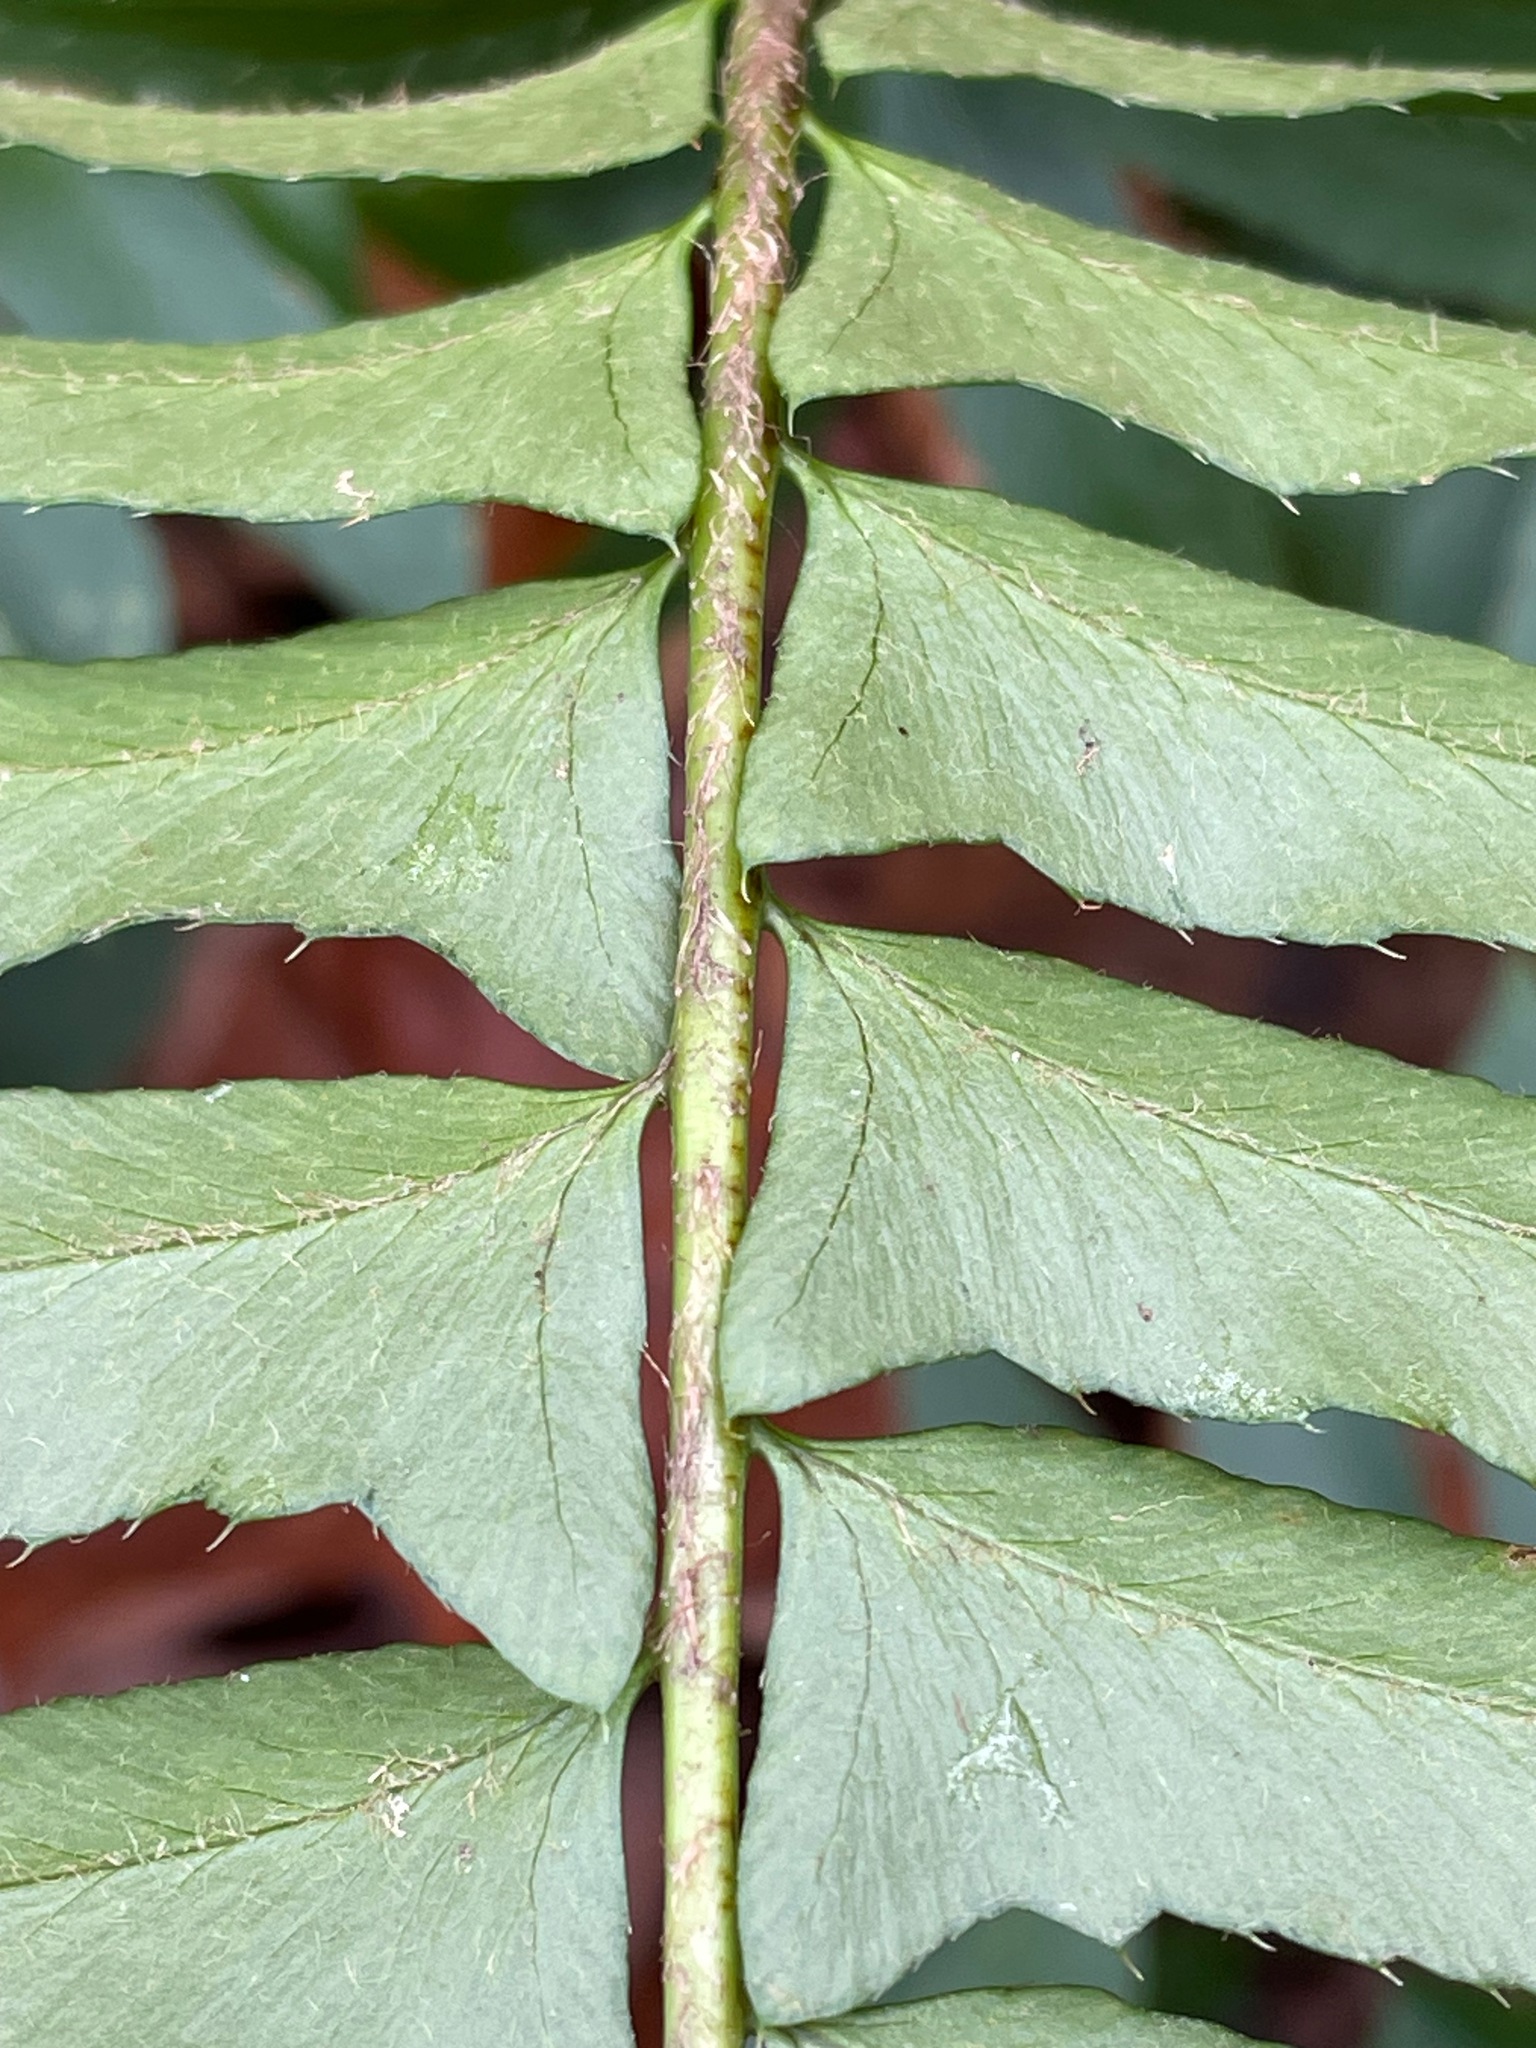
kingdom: Plantae
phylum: Tracheophyta
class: Polypodiopsida
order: Polypodiales
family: Dryopteridaceae
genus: Polystichum
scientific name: Polystichum acrostichoides
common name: Christmas fern
